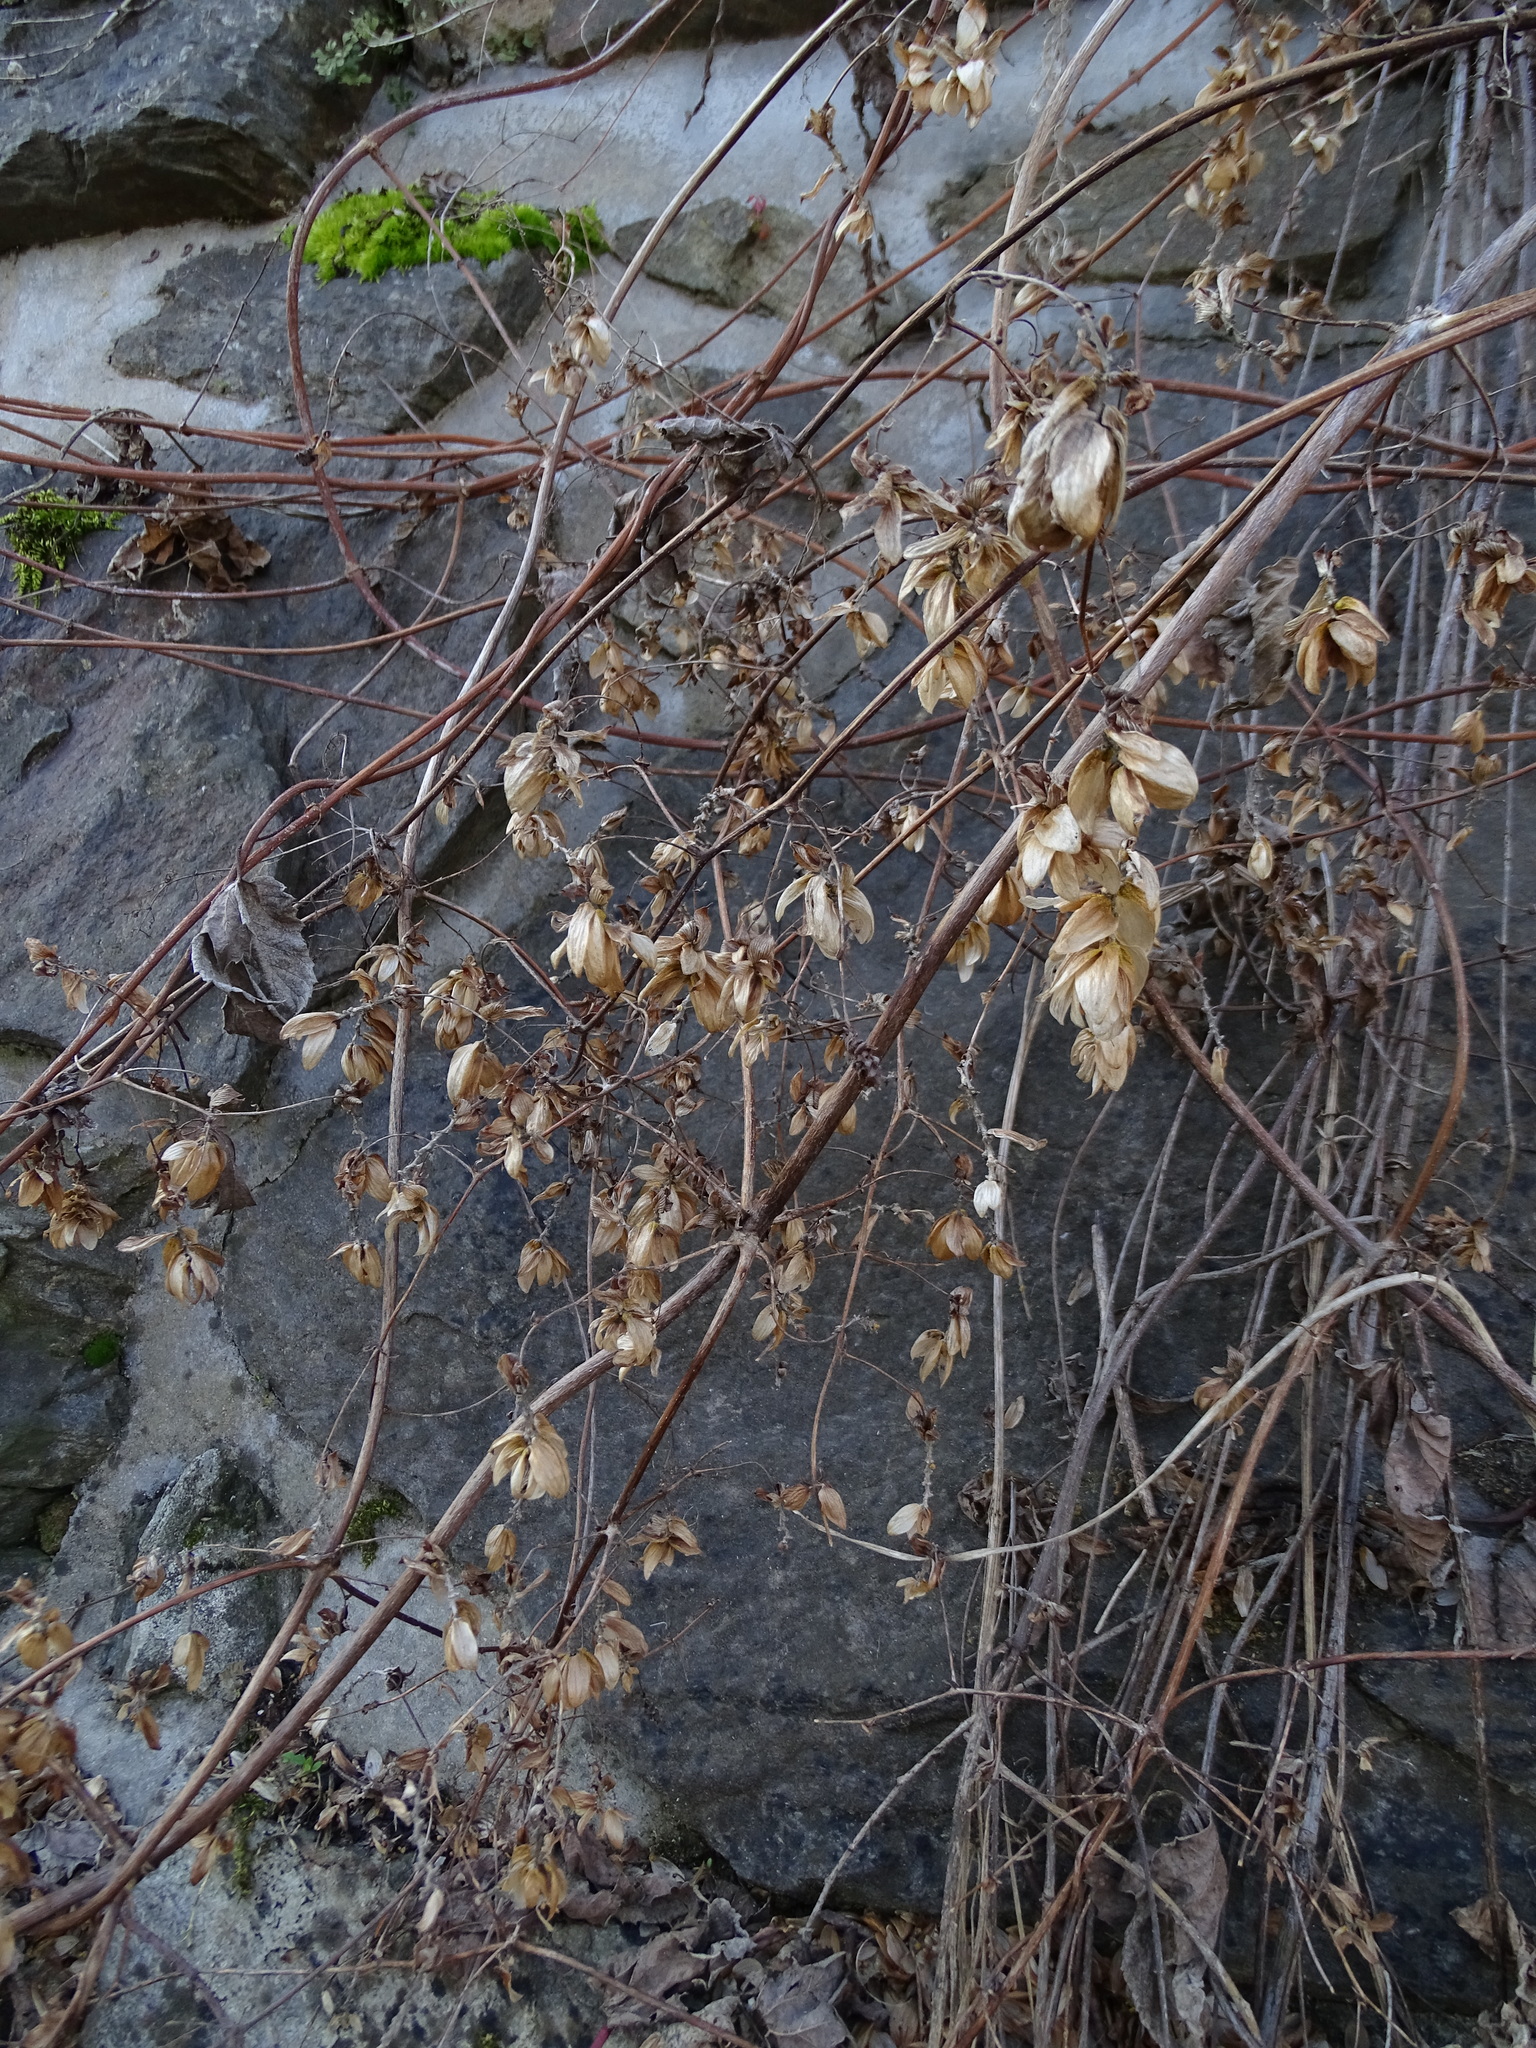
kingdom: Plantae
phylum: Tracheophyta
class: Magnoliopsida
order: Rosales
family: Cannabaceae
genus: Humulus
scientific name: Humulus lupulus
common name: Hop
